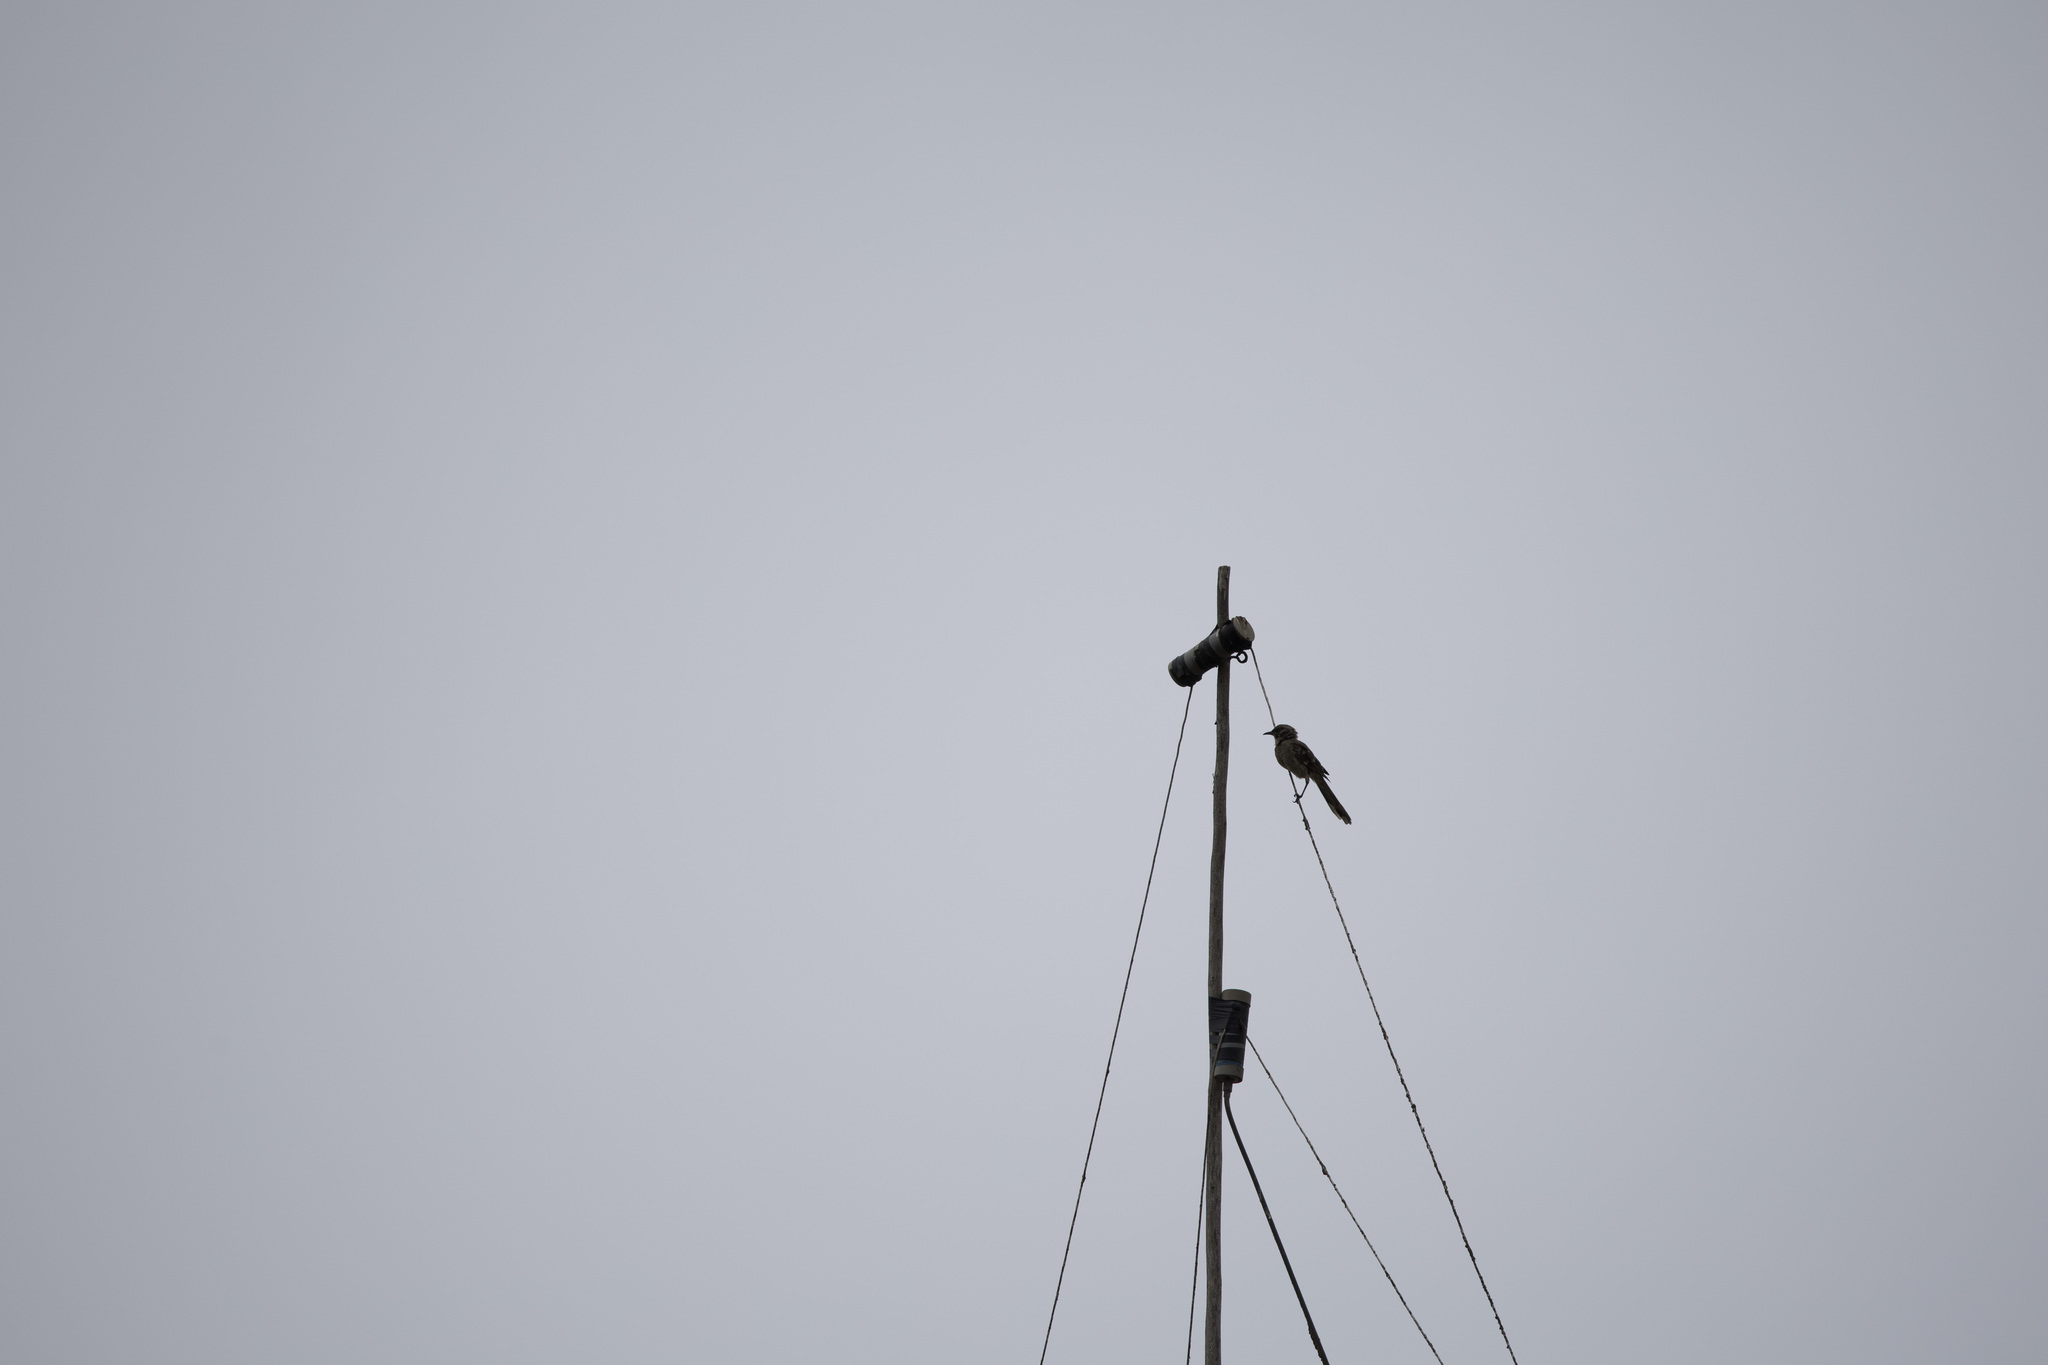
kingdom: Animalia
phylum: Chordata
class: Aves
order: Passeriformes
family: Mimidae
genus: Mimus
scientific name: Mimus longicaudatus
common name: Long-tailed mockingbird
